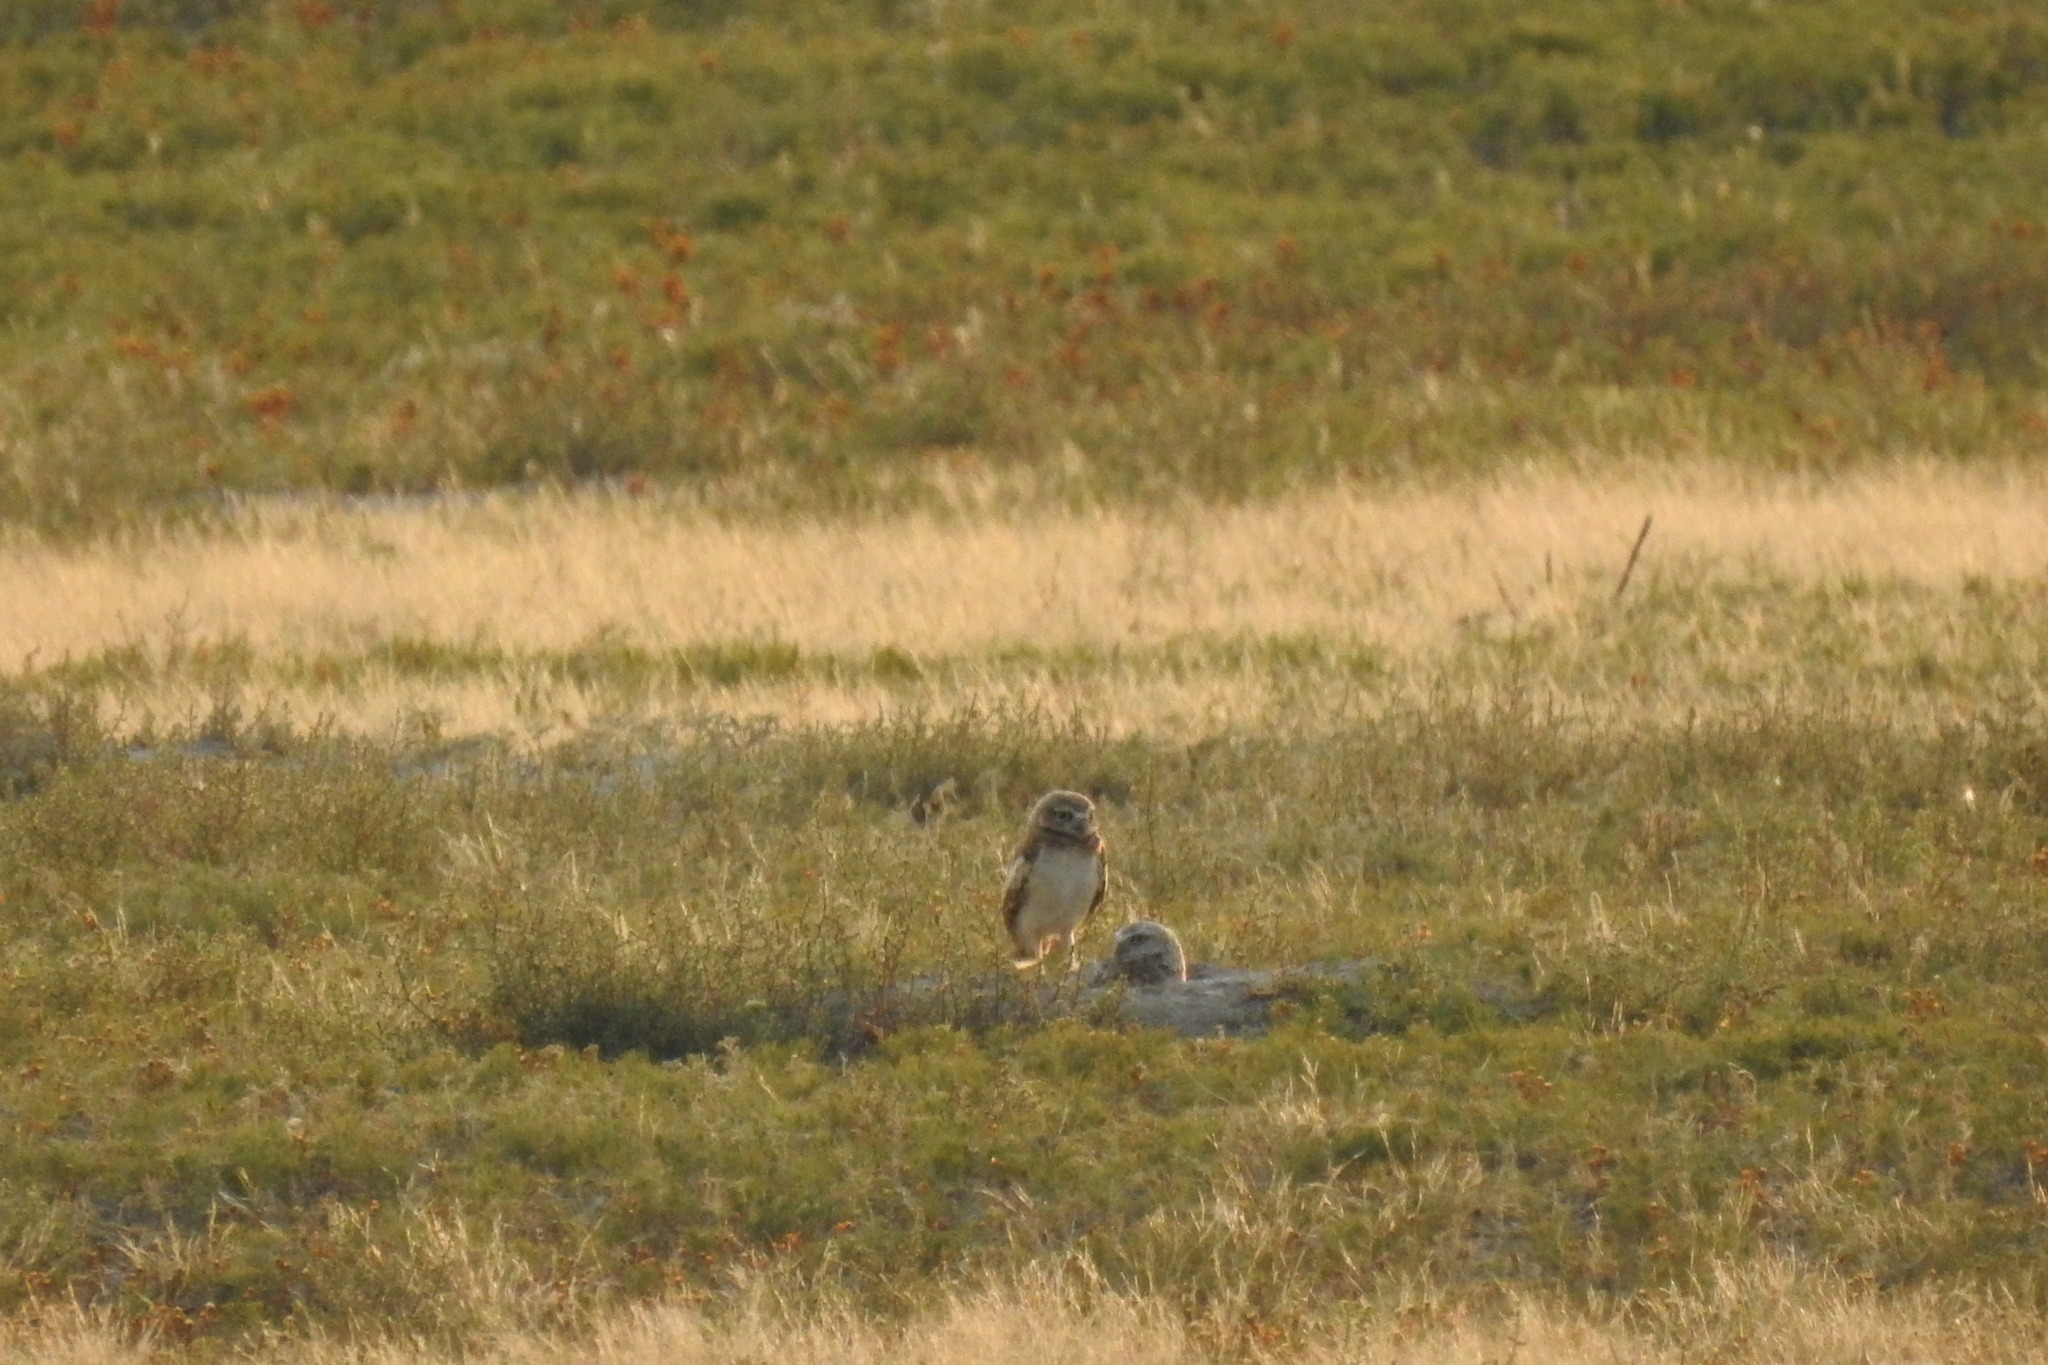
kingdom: Animalia
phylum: Chordata
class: Aves
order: Strigiformes
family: Strigidae
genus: Athene
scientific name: Athene cunicularia
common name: Burrowing owl
